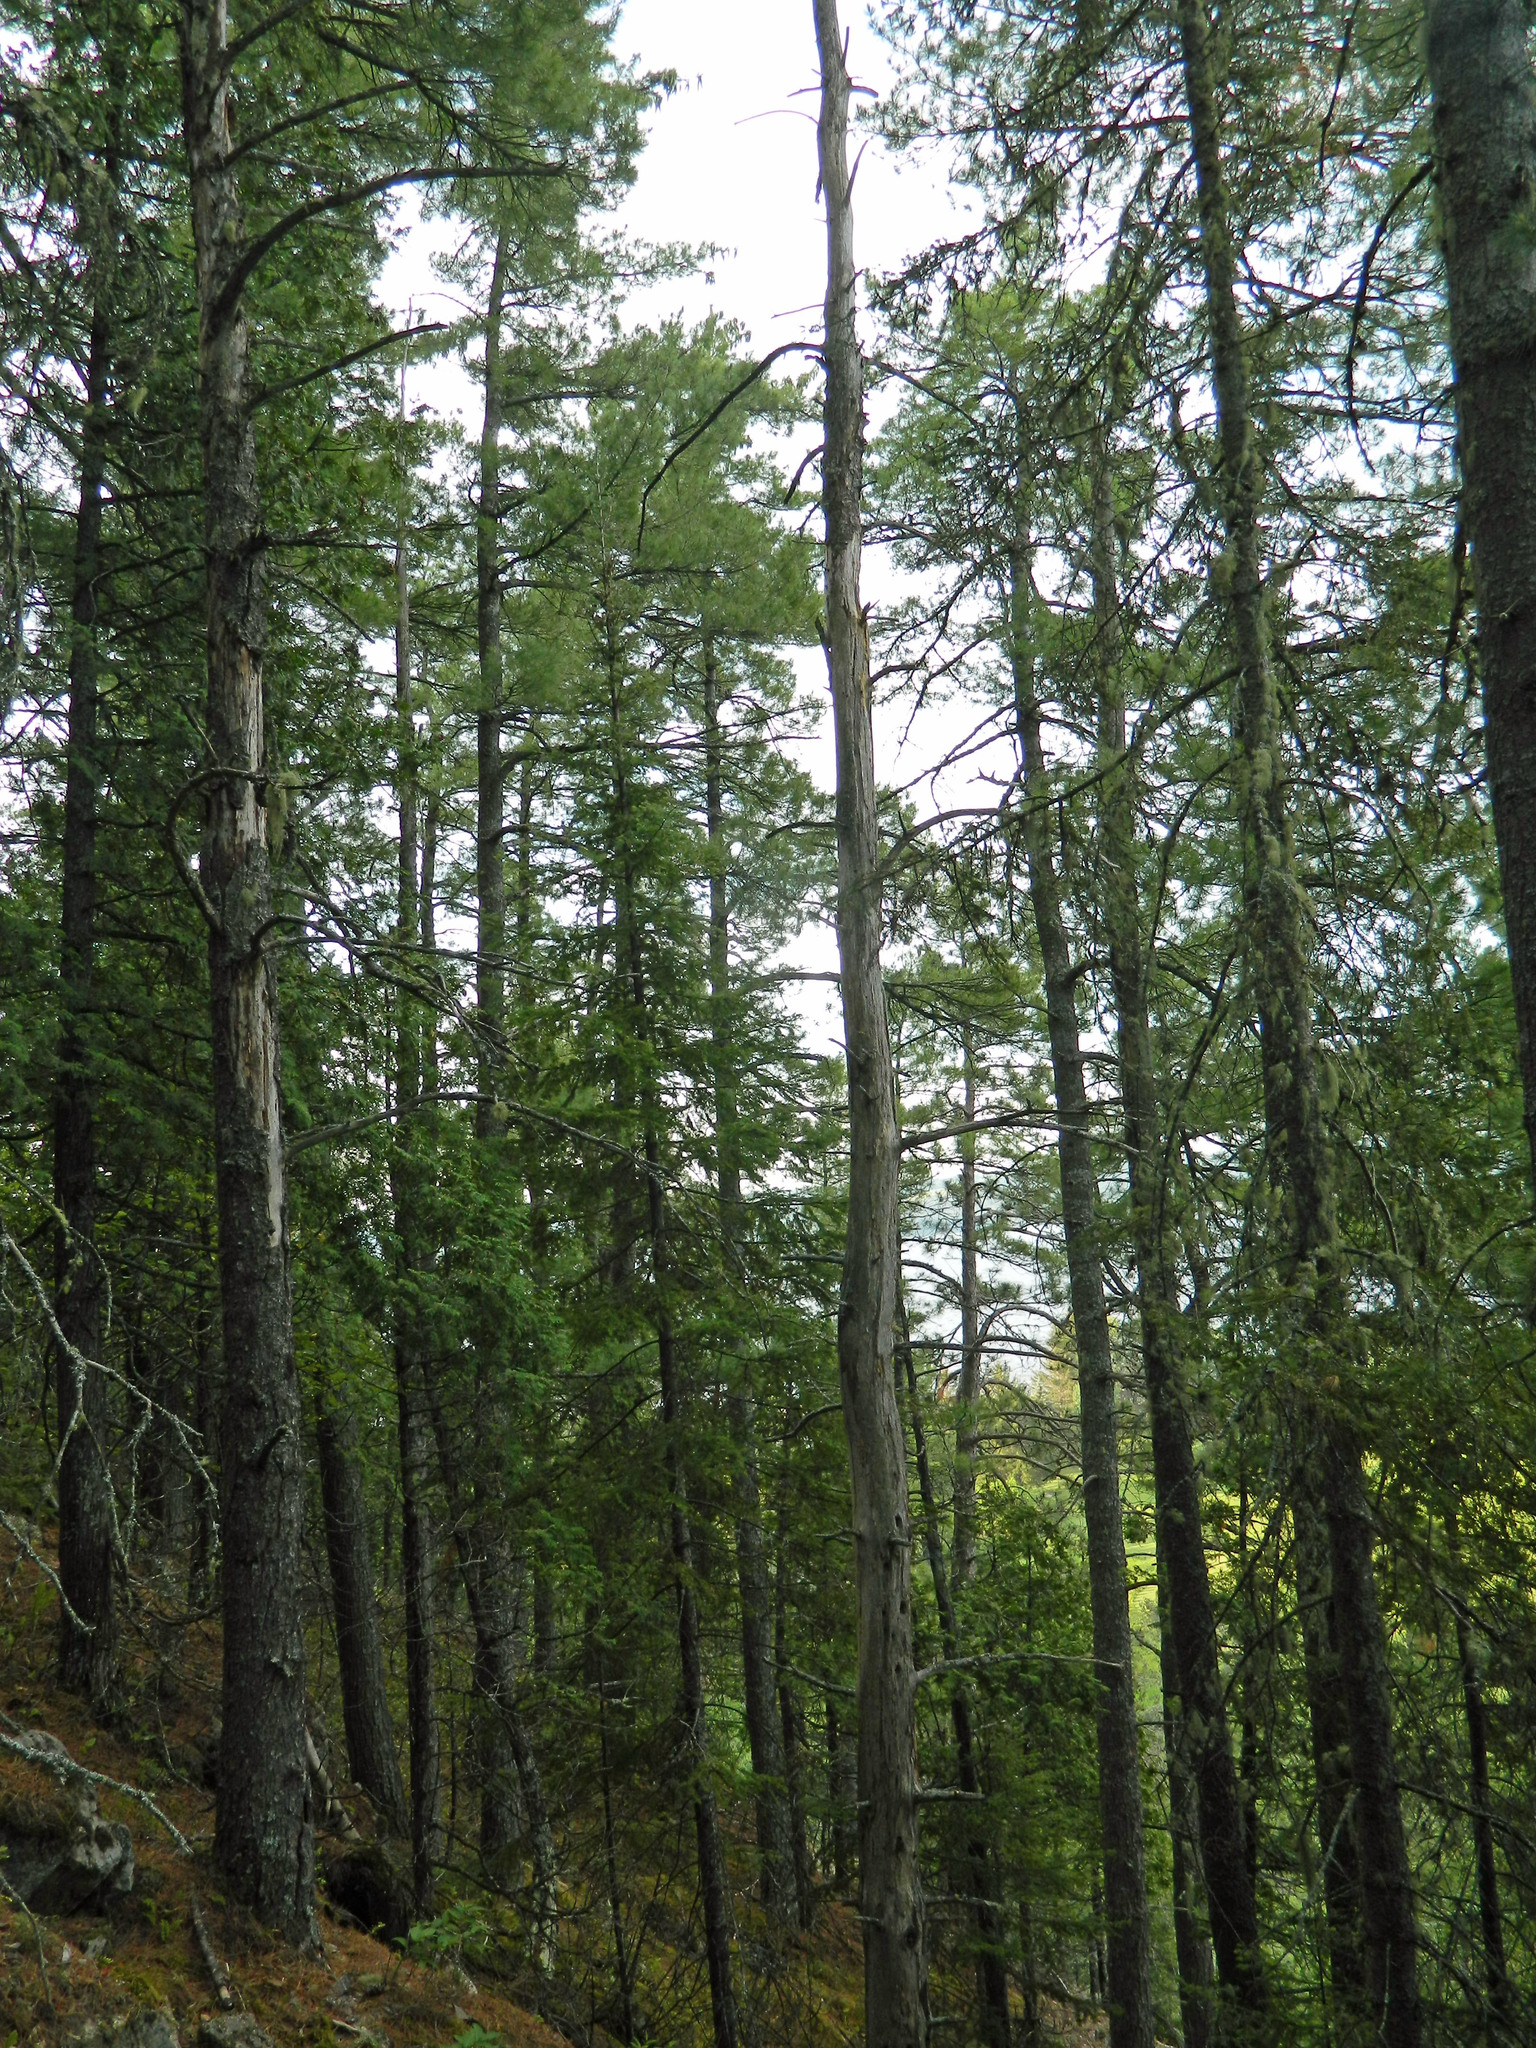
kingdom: Plantae
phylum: Tracheophyta
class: Pinopsida
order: Pinales
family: Pinaceae
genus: Pinus
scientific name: Pinus strobus
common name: Weymouth pine
